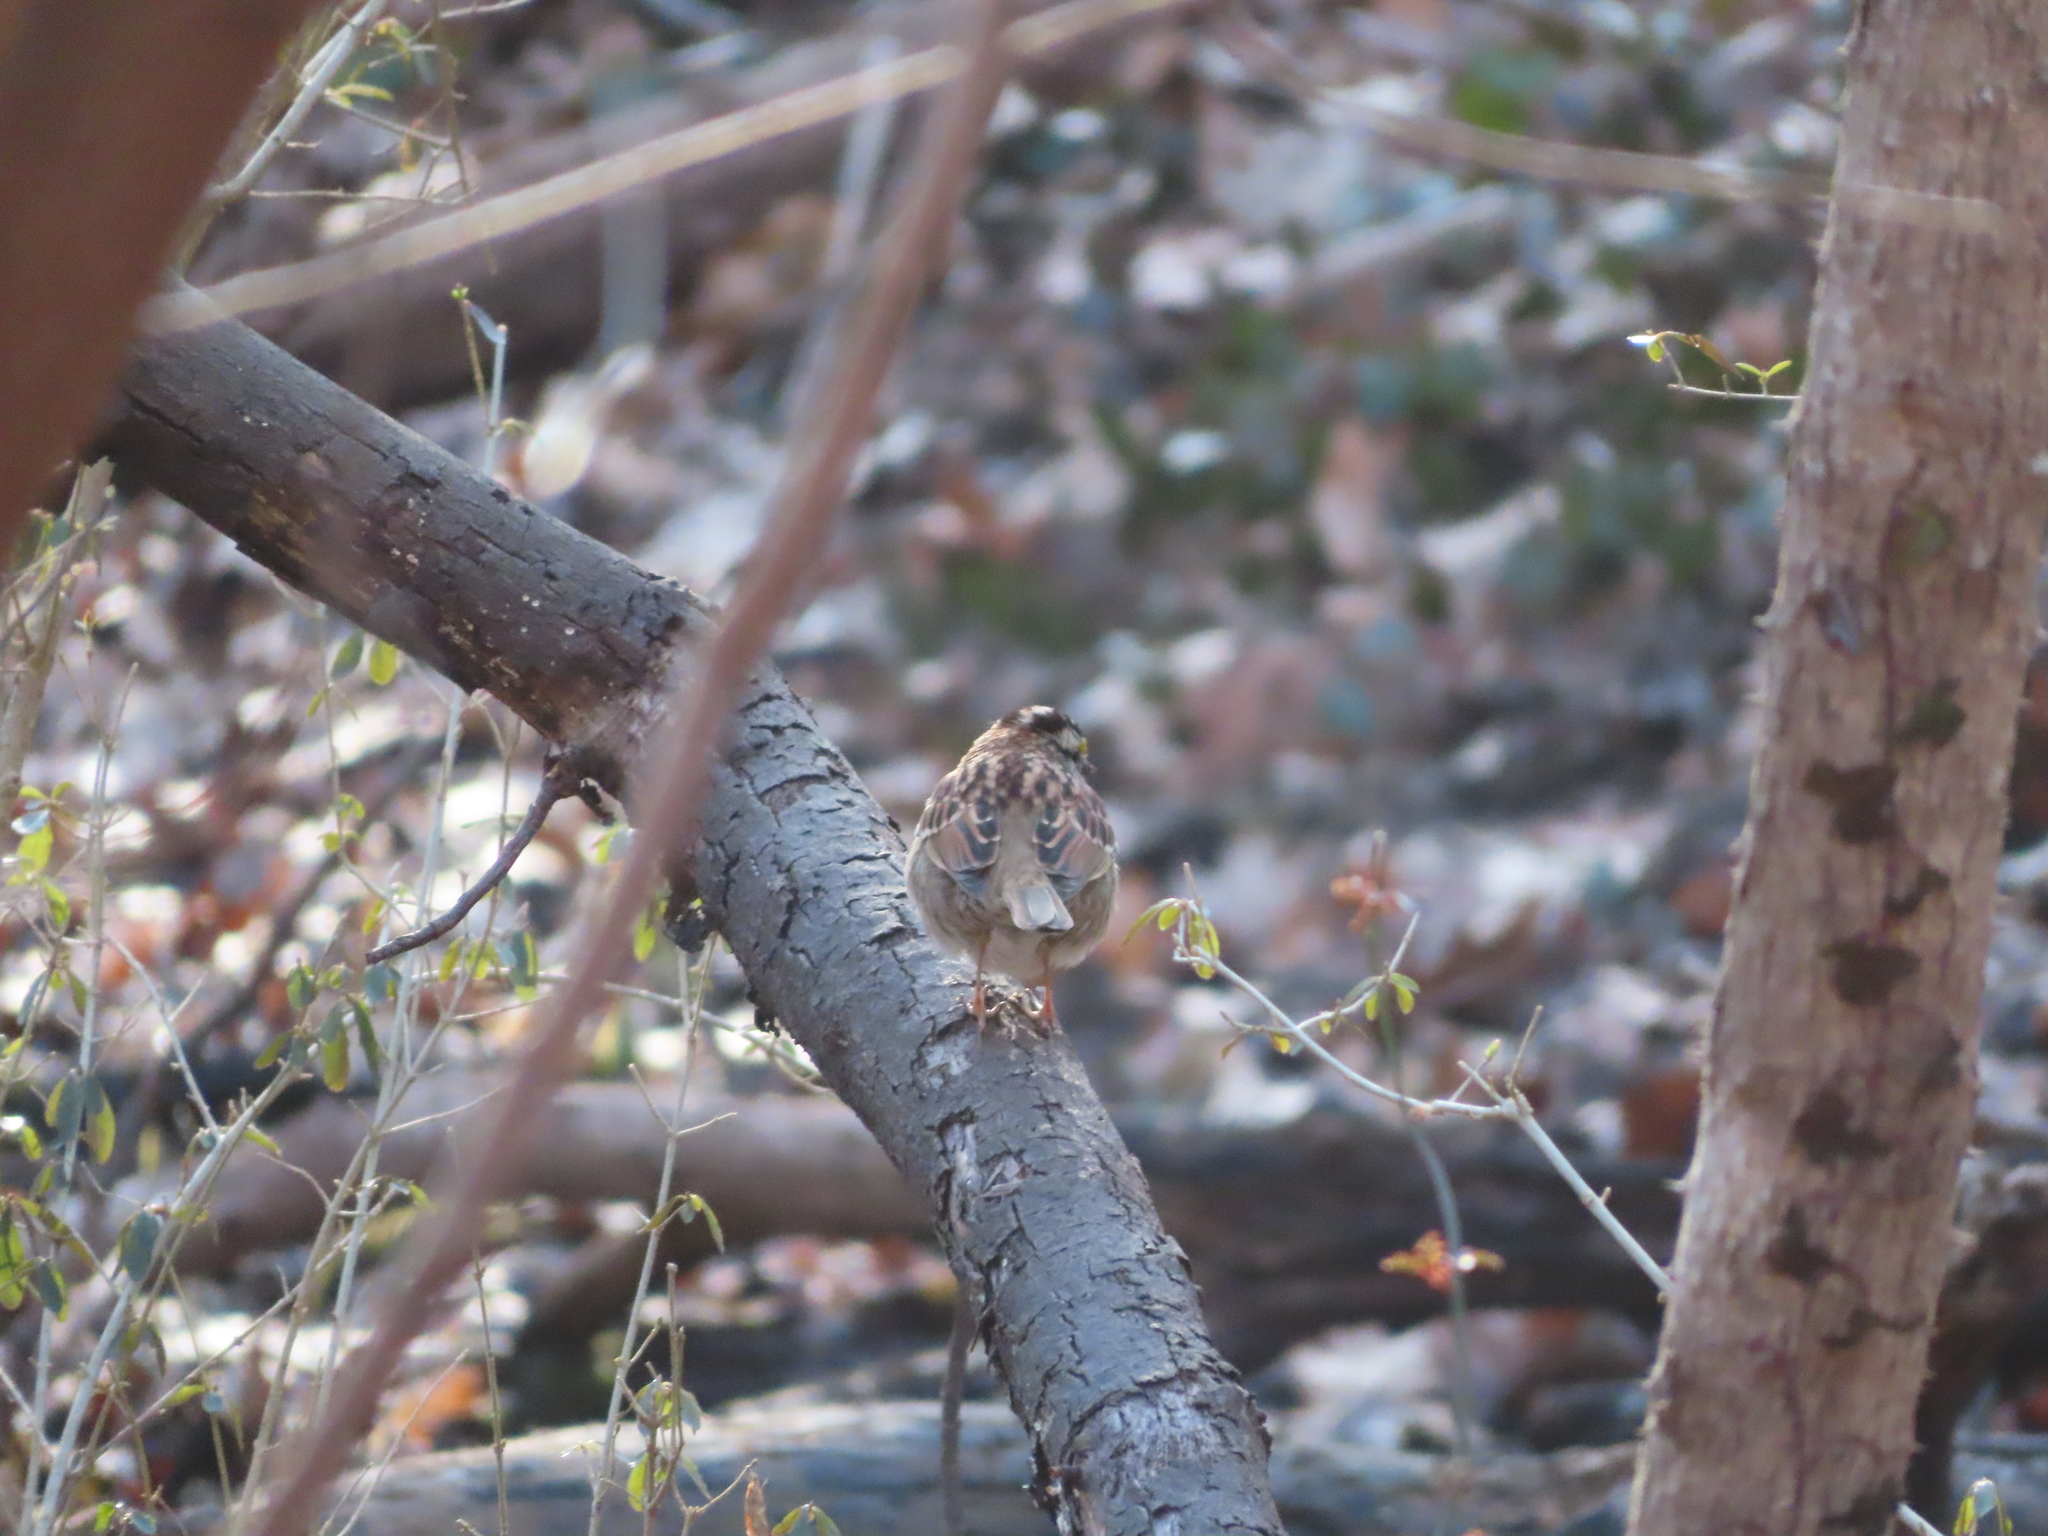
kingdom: Animalia
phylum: Chordata
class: Aves
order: Passeriformes
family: Passerellidae
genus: Zonotrichia
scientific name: Zonotrichia albicollis
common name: White-throated sparrow
